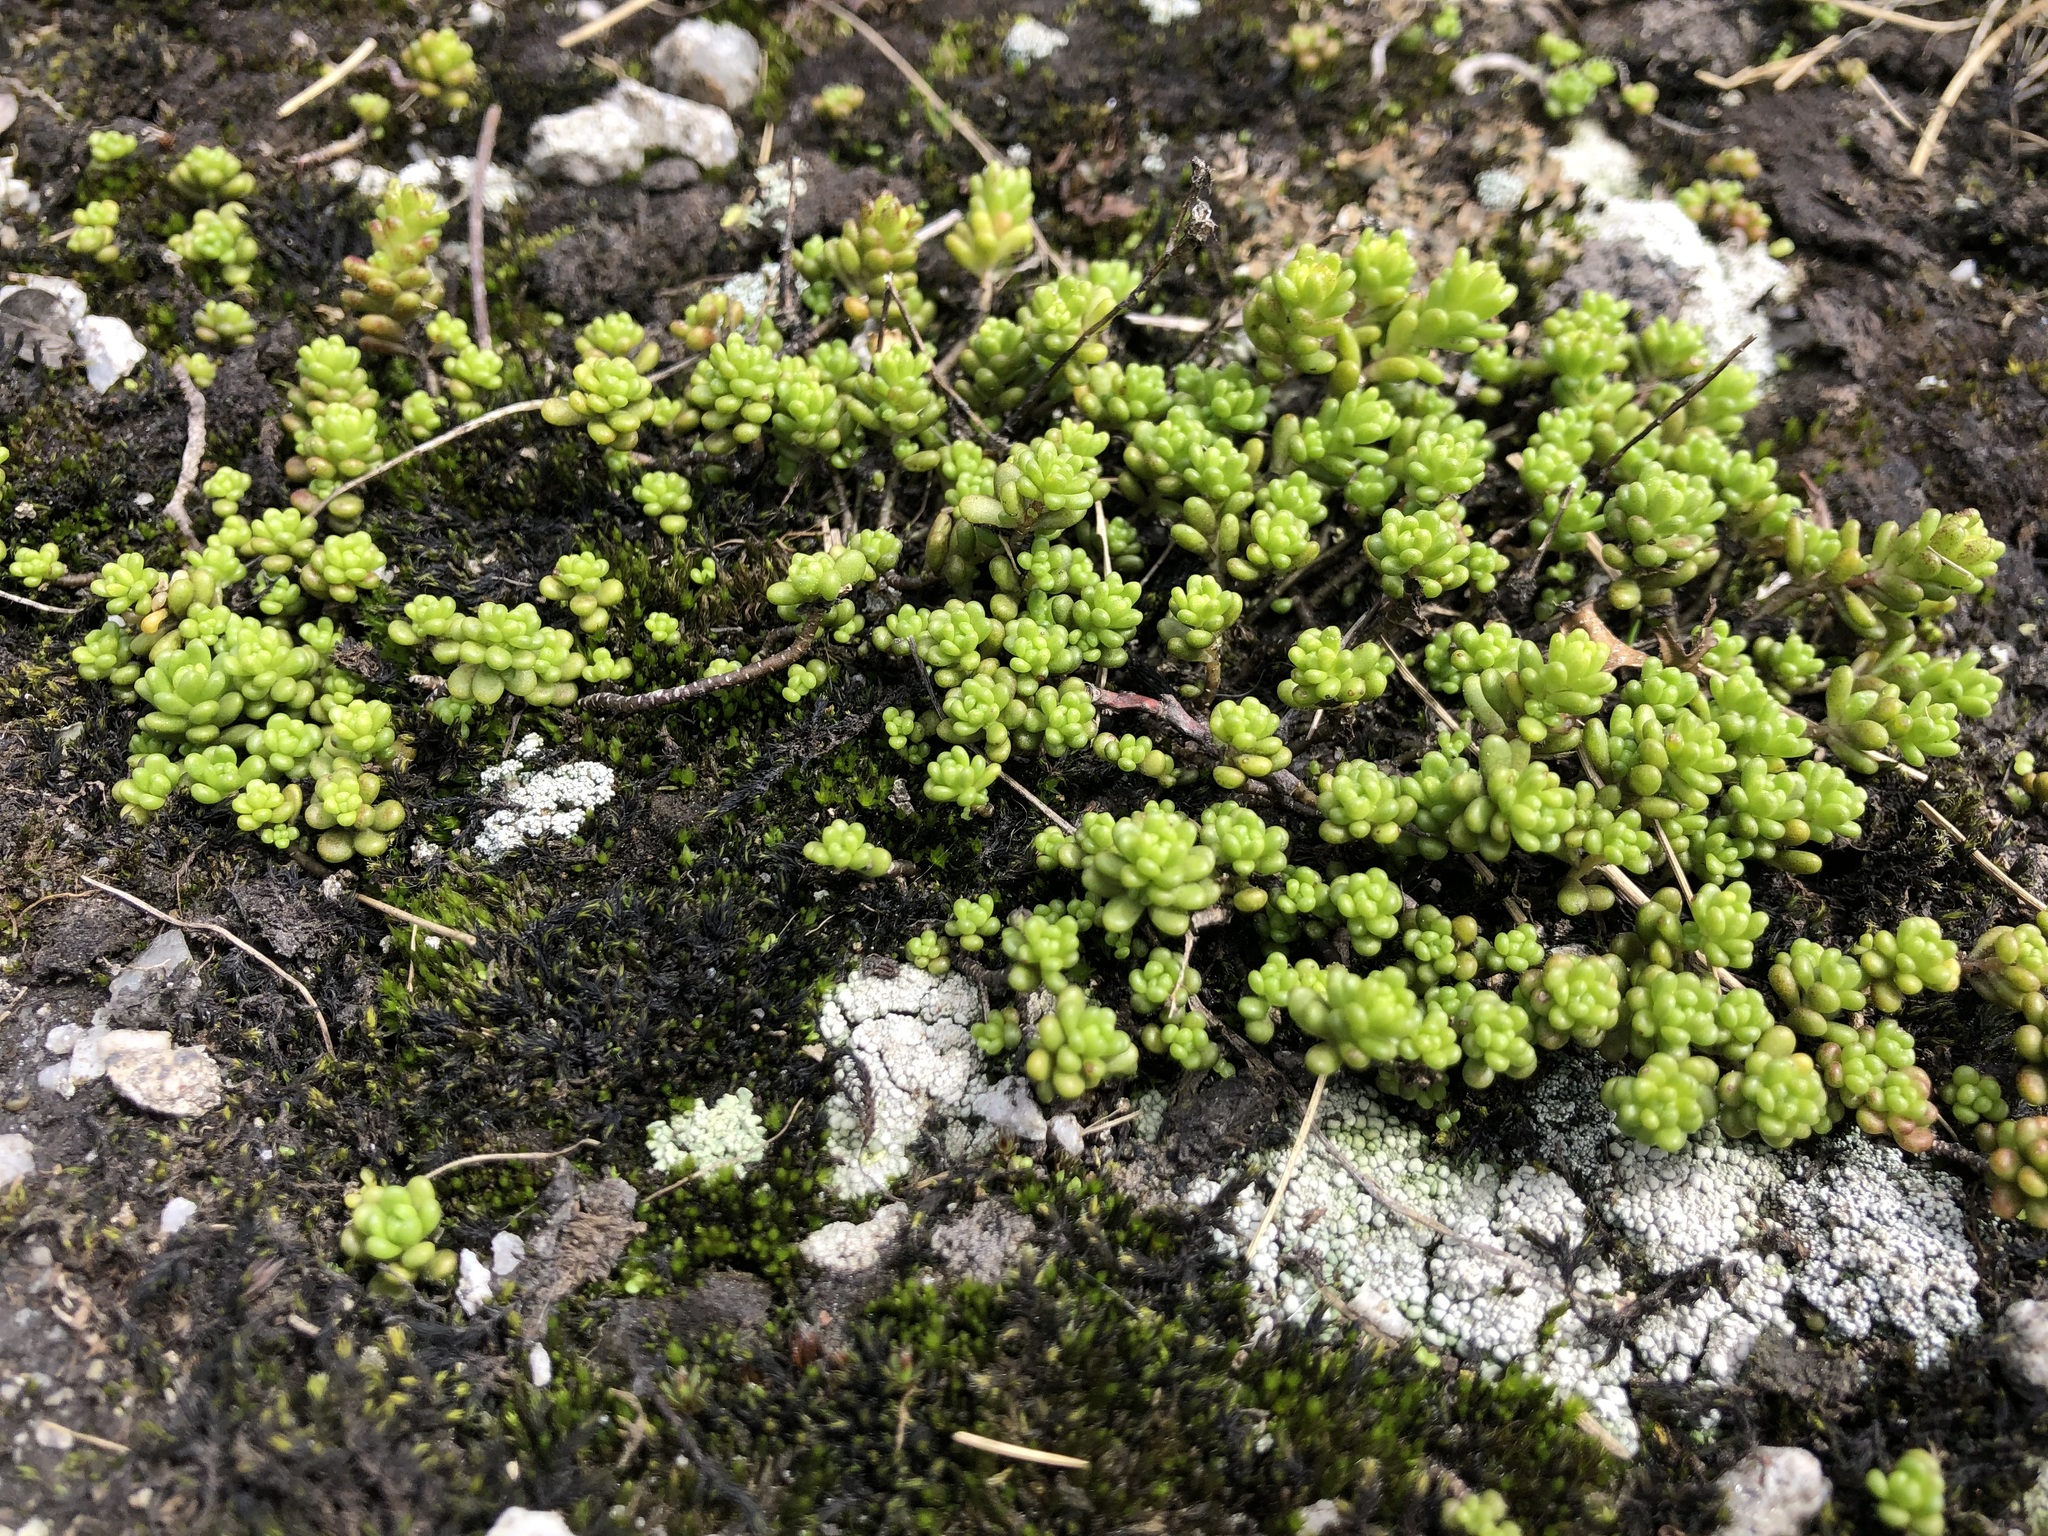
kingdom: Plantae
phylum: Tracheophyta
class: Magnoliopsida
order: Saxifragales
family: Crassulaceae
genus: Sedum
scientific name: Sedum album
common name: White stonecrop
